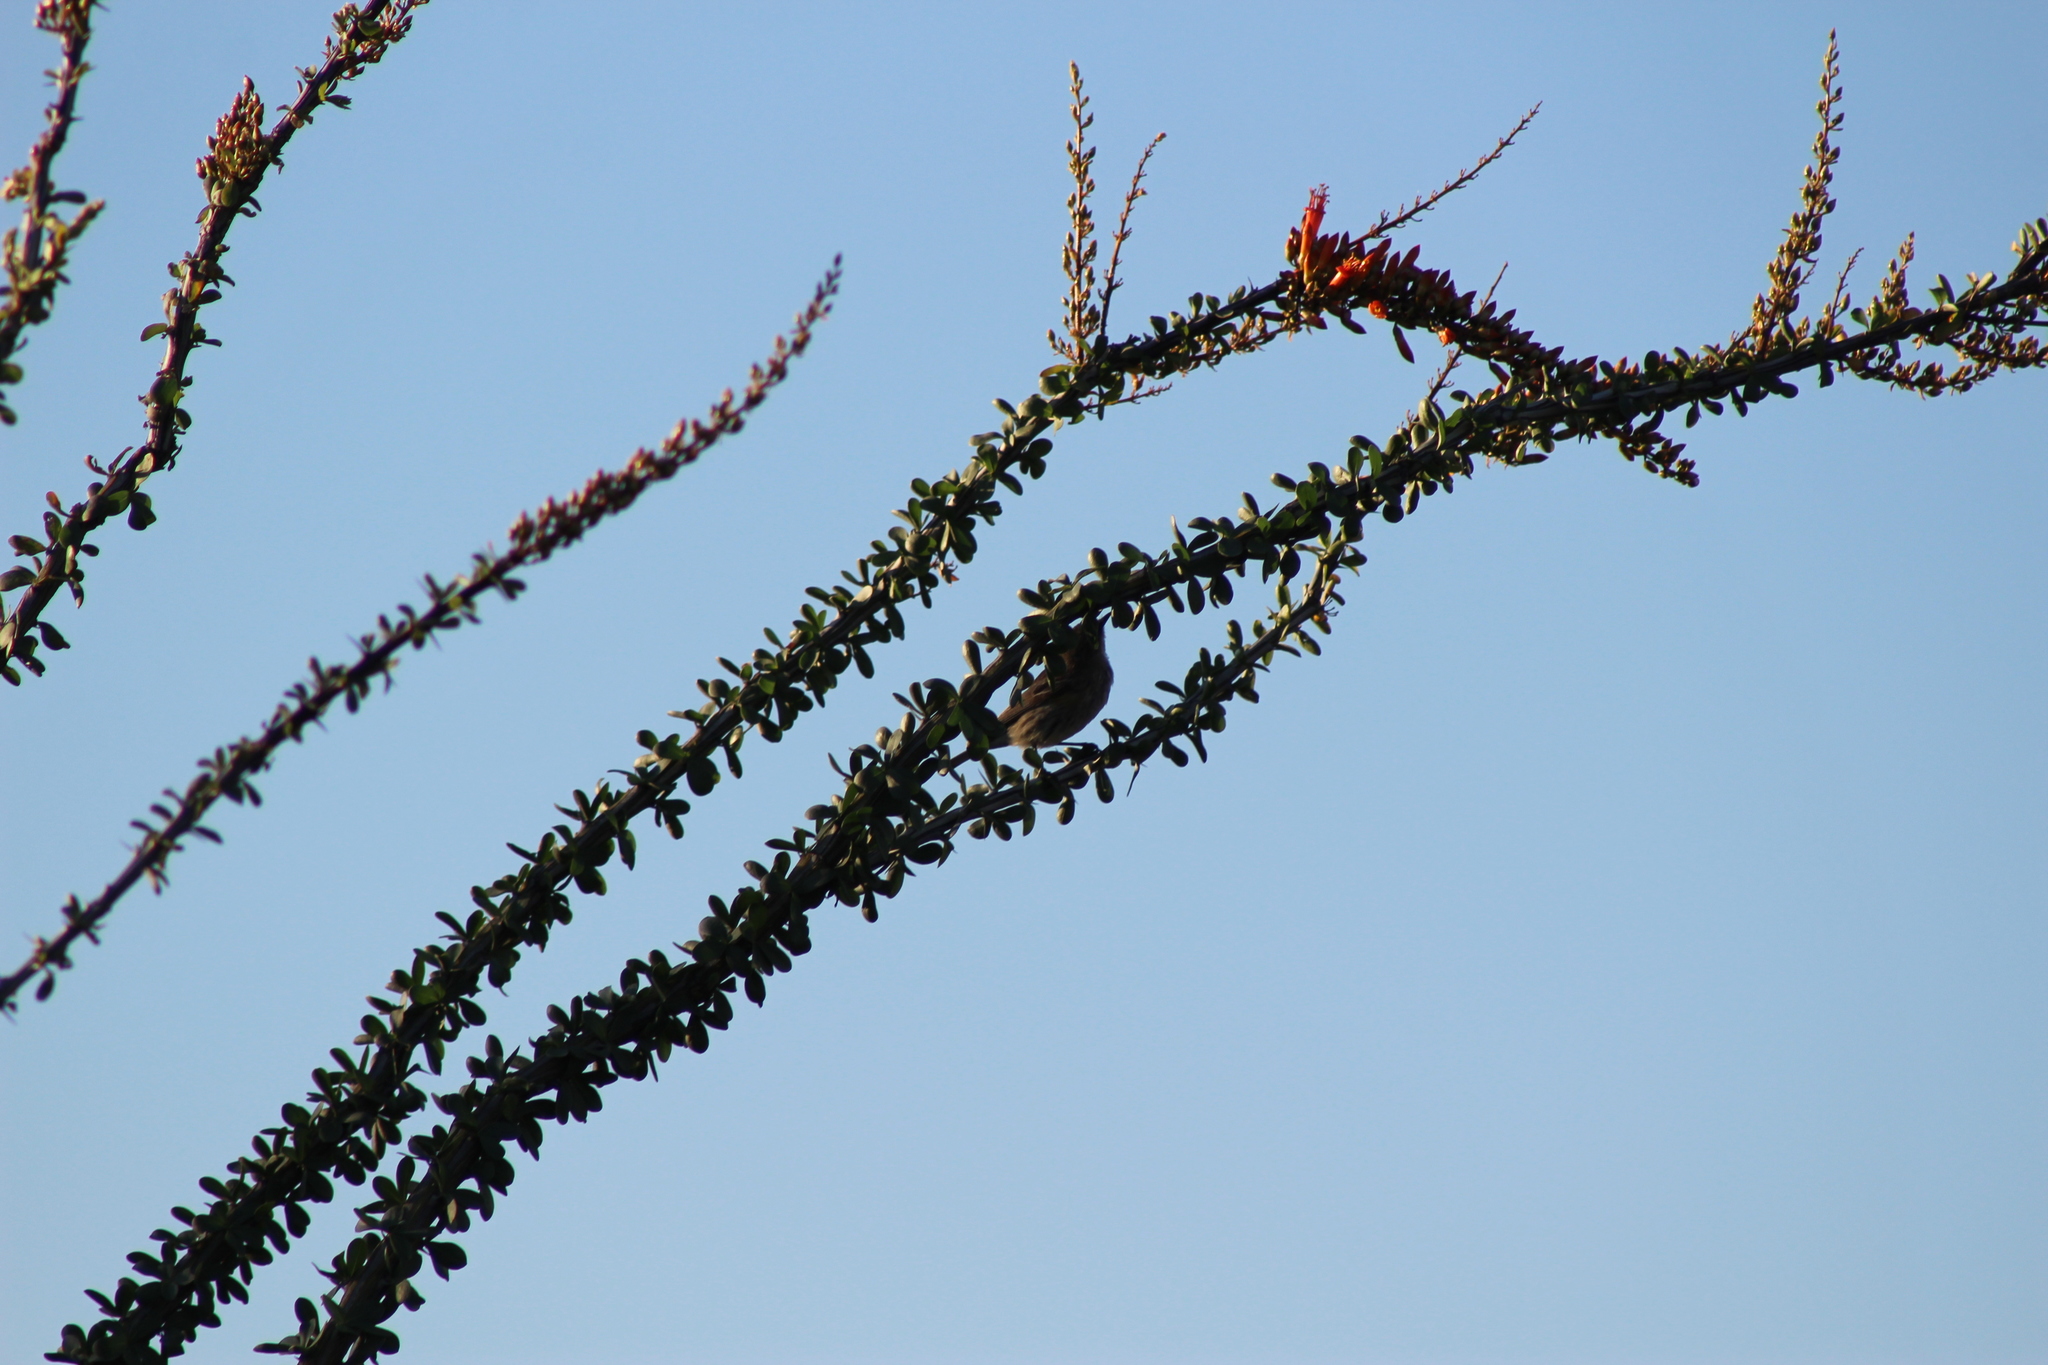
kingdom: Animalia
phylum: Chordata
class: Aves
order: Passeriformes
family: Parulidae
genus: Setophaga
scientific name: Setophaga coronata
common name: Myrtle warbler
